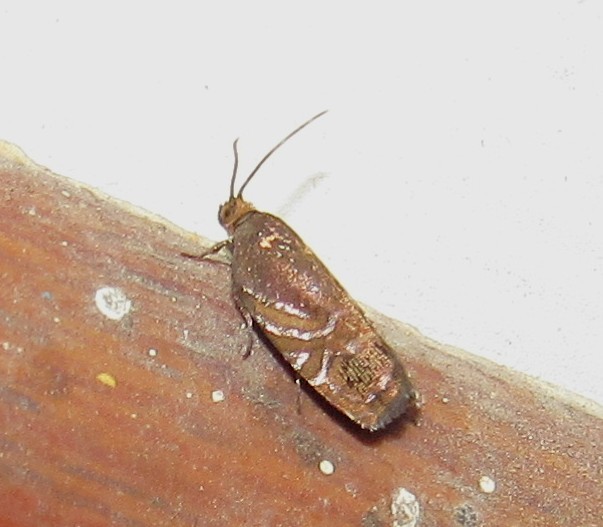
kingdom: Animalia
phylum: Arthropoda
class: Insecta
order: Lepidoptera
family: Tortricidae
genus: Cydia
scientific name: Cydia araucariae
